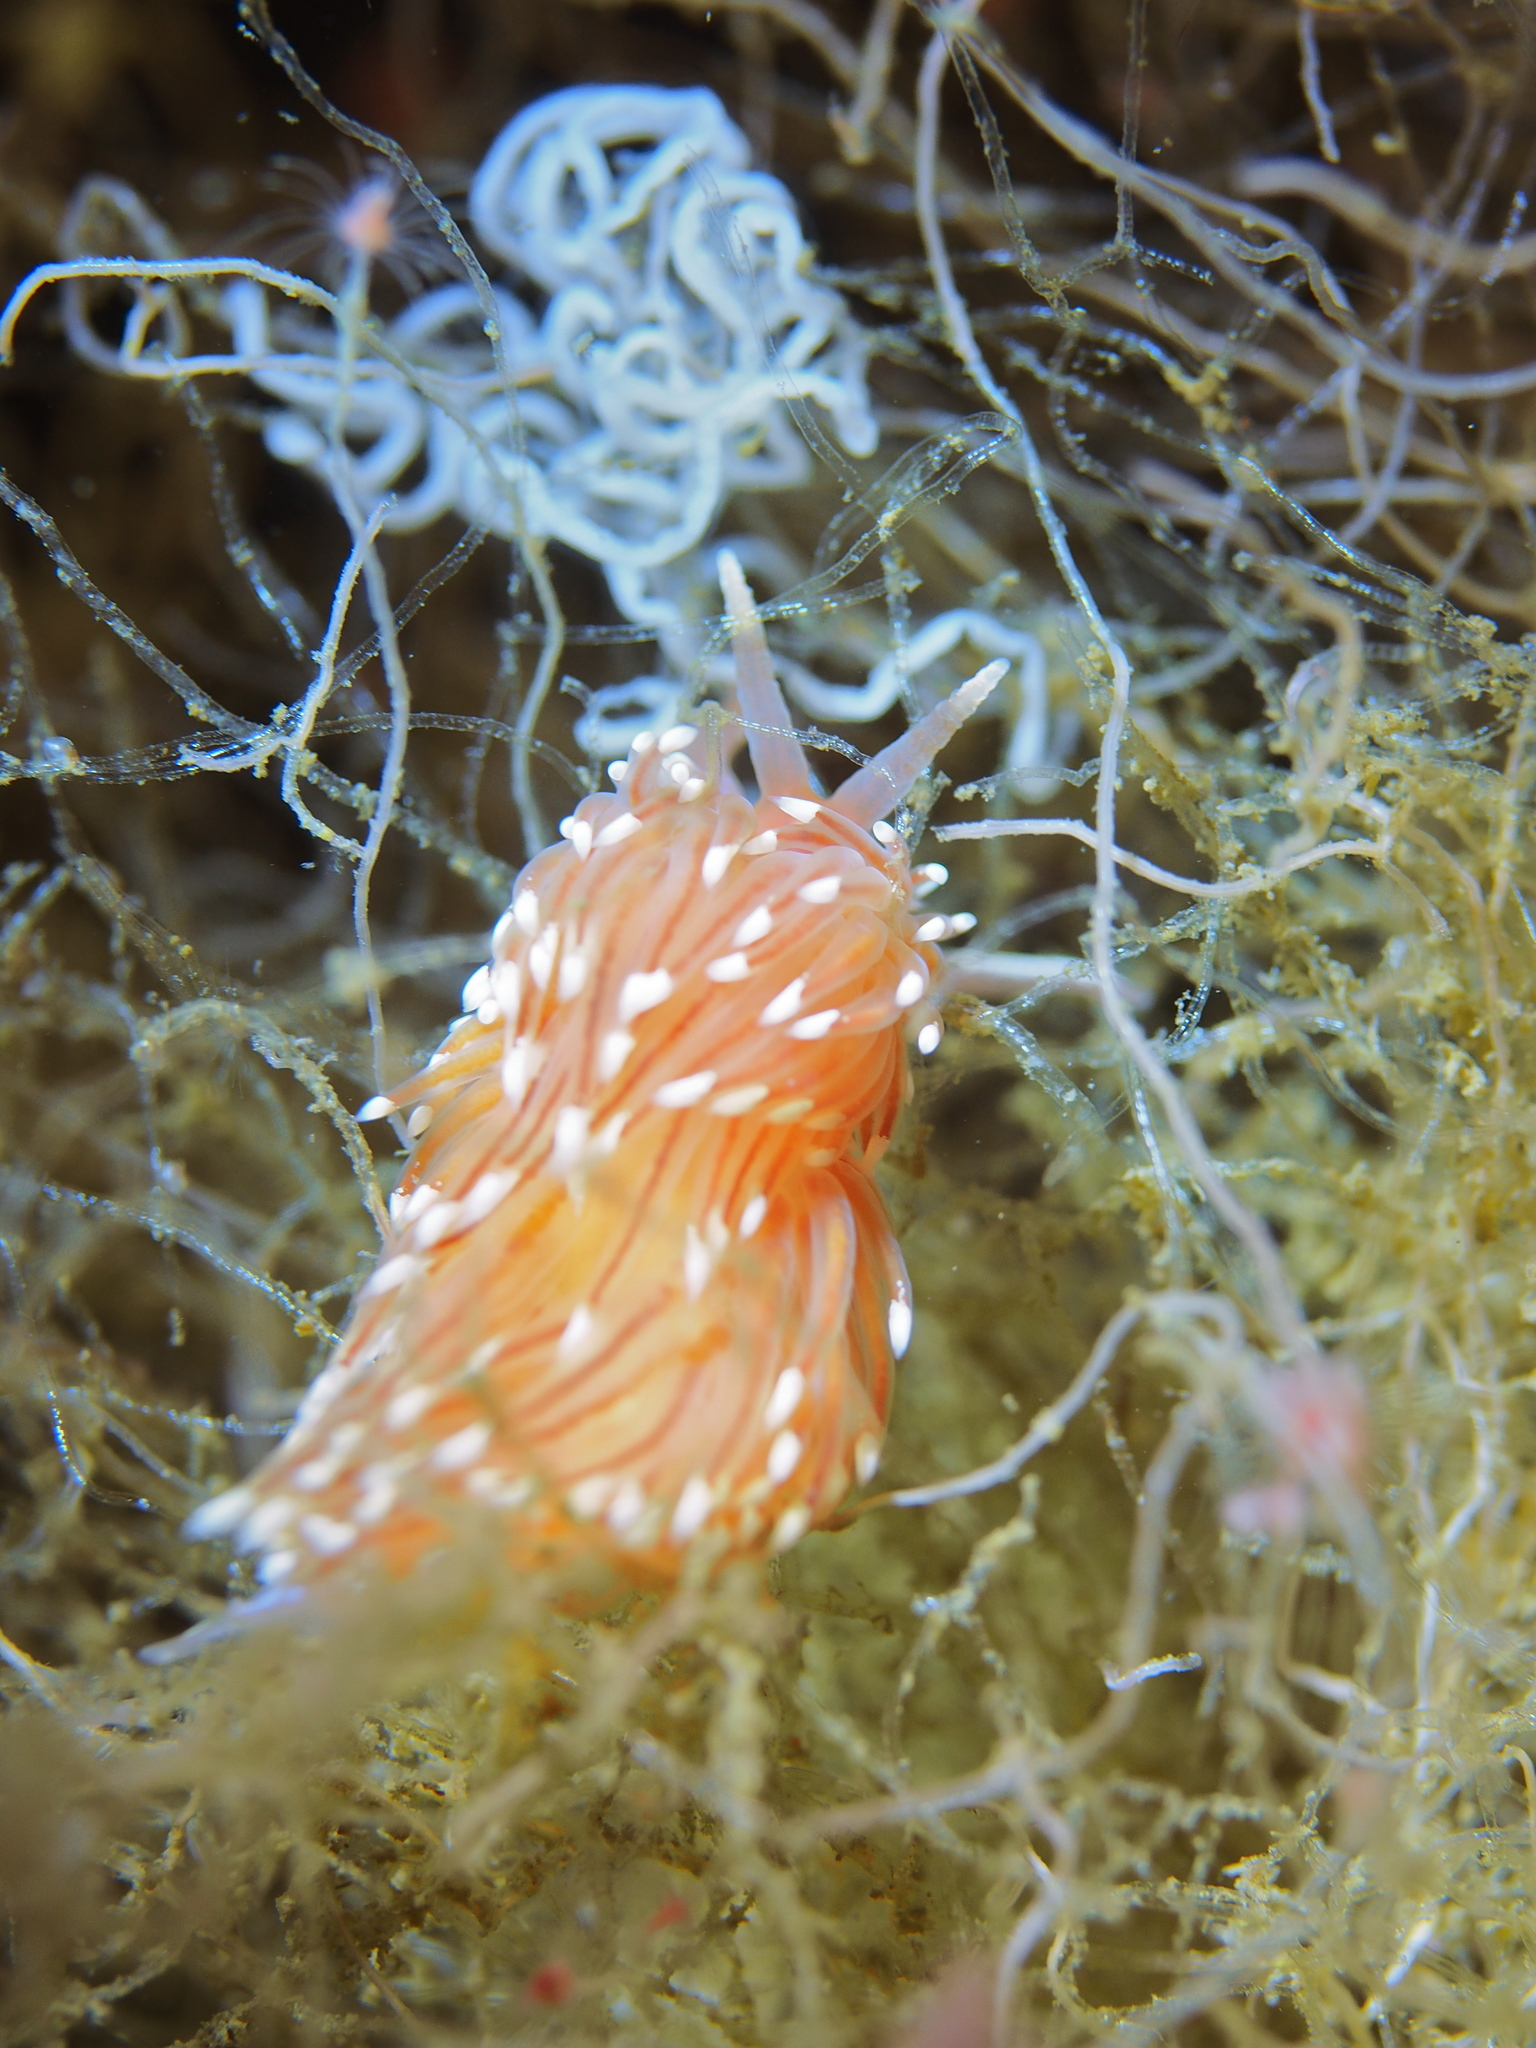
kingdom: Animalia
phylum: Mollusca
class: Gastropoda
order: Nudibranchia
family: Facelinidae
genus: Facelina
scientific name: Facelina bostoniensis
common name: Boston facelina
